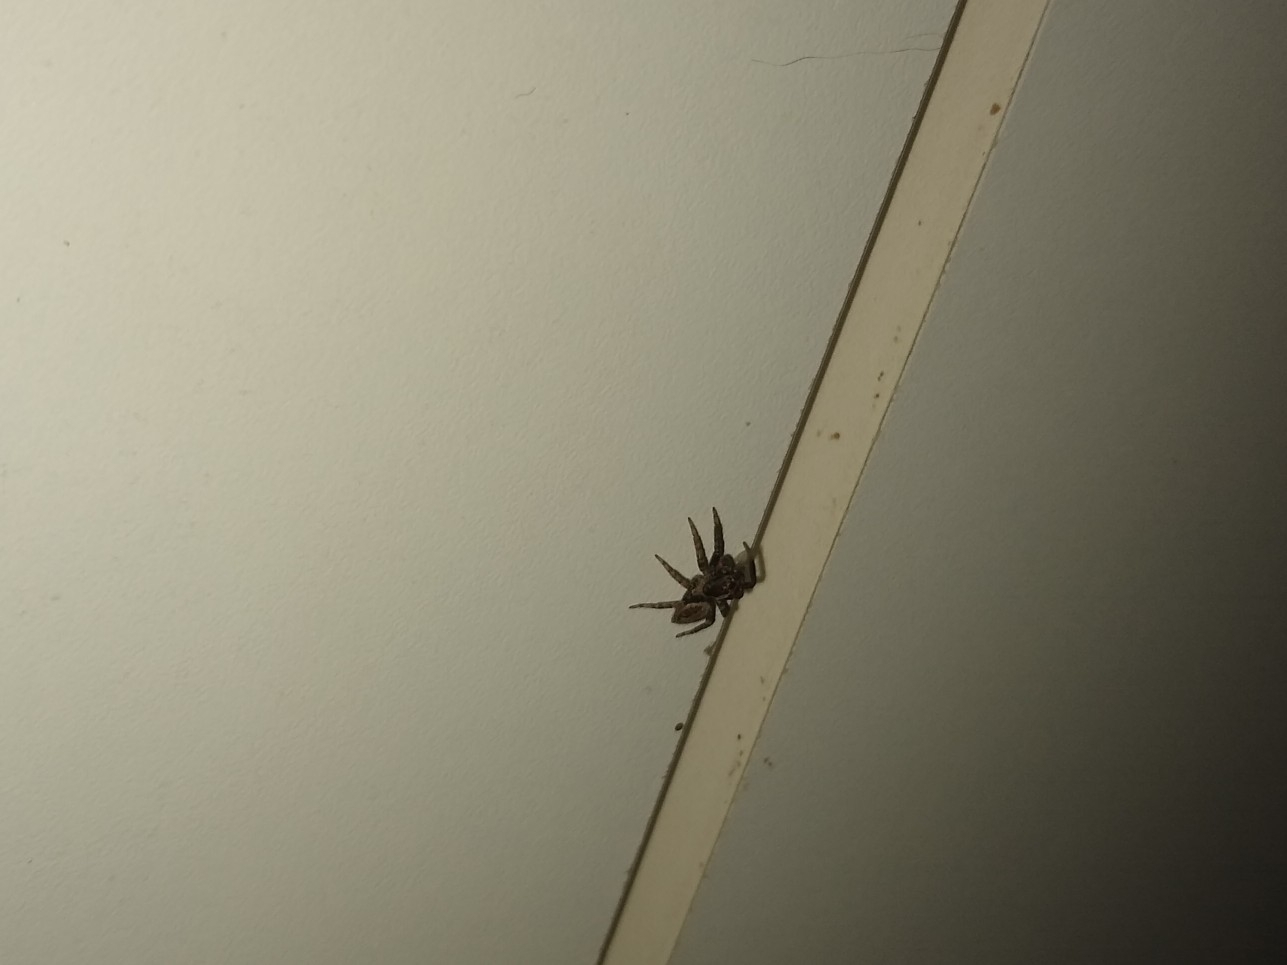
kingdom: Animalia
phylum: Arthropoda
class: Arachnida
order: Araneae
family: Salticidae
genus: Asaphobelis
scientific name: Asaphobelis physonychus
